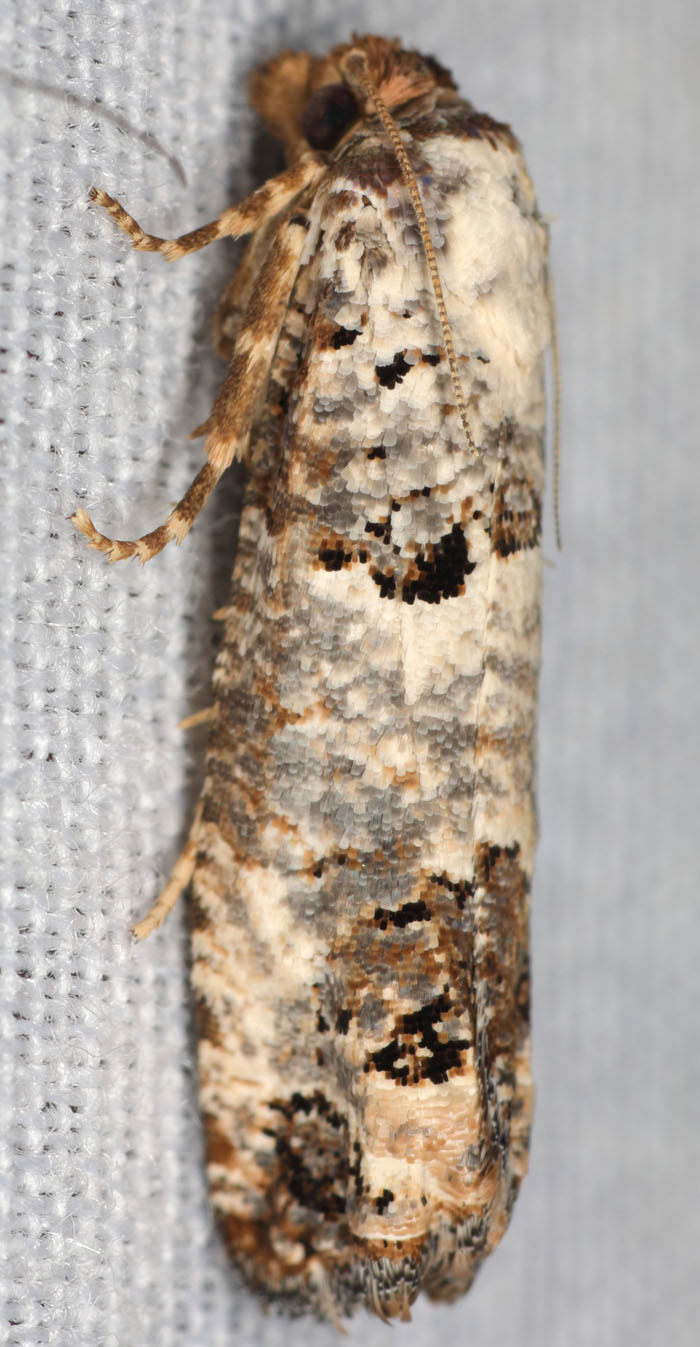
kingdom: Animalia
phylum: Arthropoda
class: Insecta
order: Lepidoptera
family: Tortricidae
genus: Pelochrista
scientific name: Pelochrista eburata
